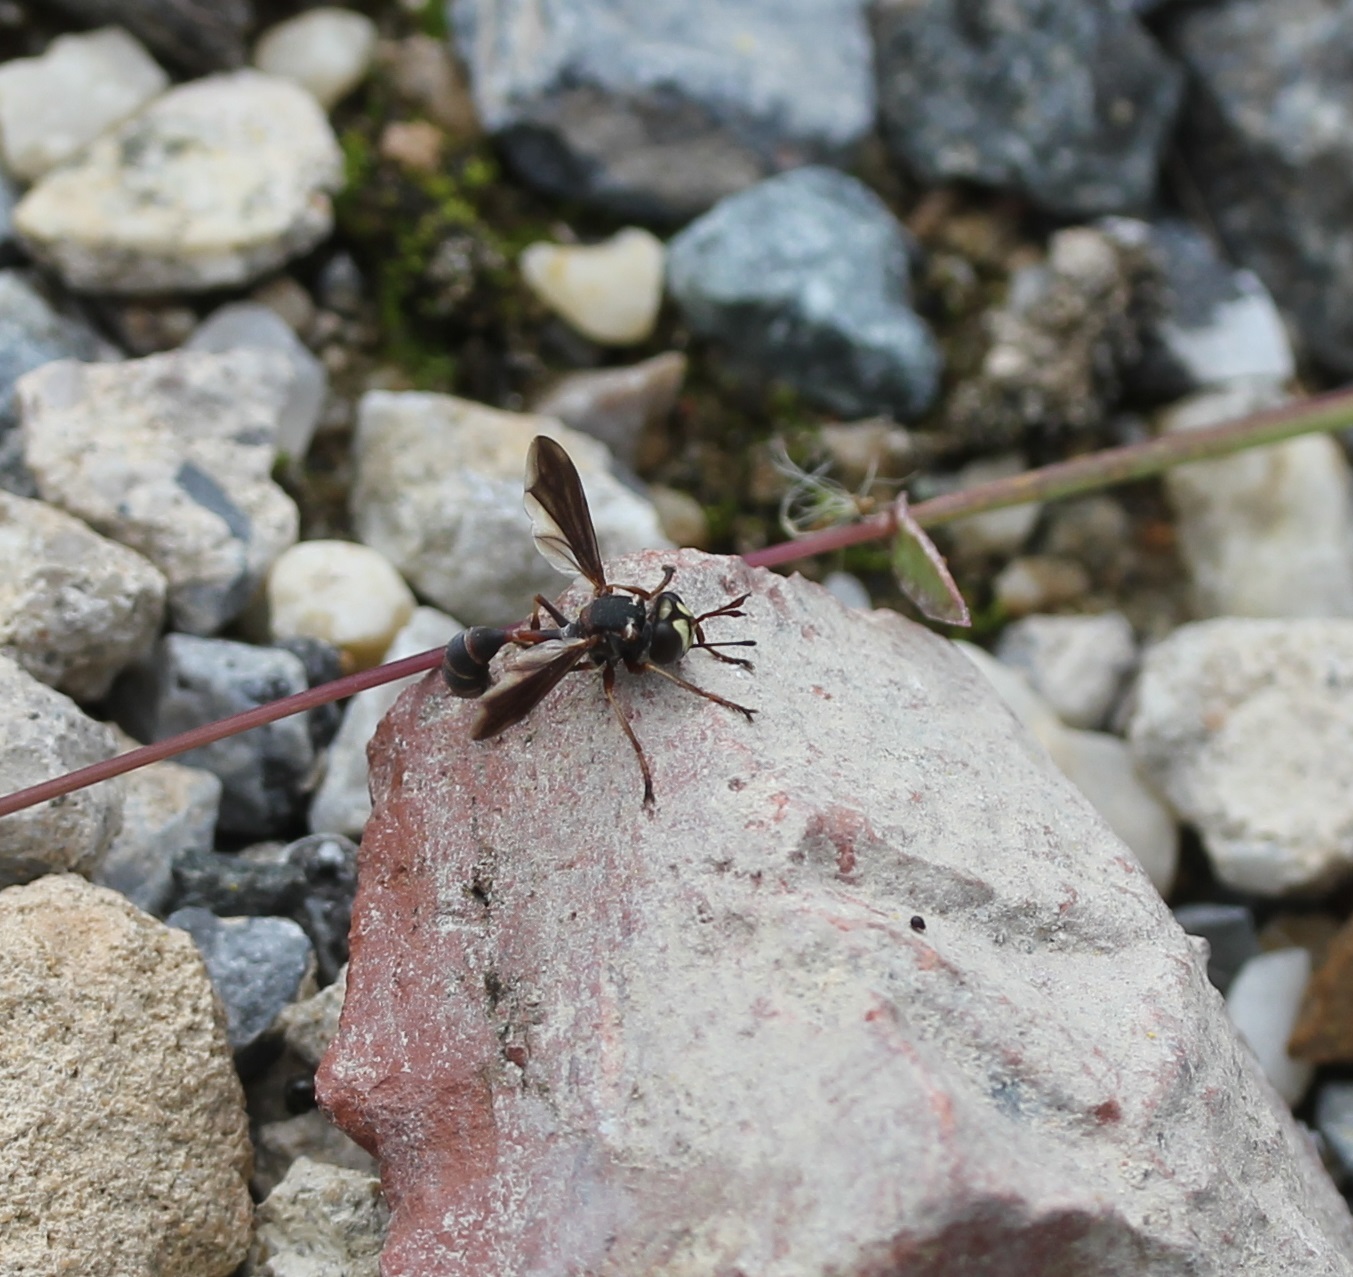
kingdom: Animalia
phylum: Arthropoda
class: Insecta
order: Diptera
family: Conopidae
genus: Physocephala
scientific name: Physocephala sagittaria
